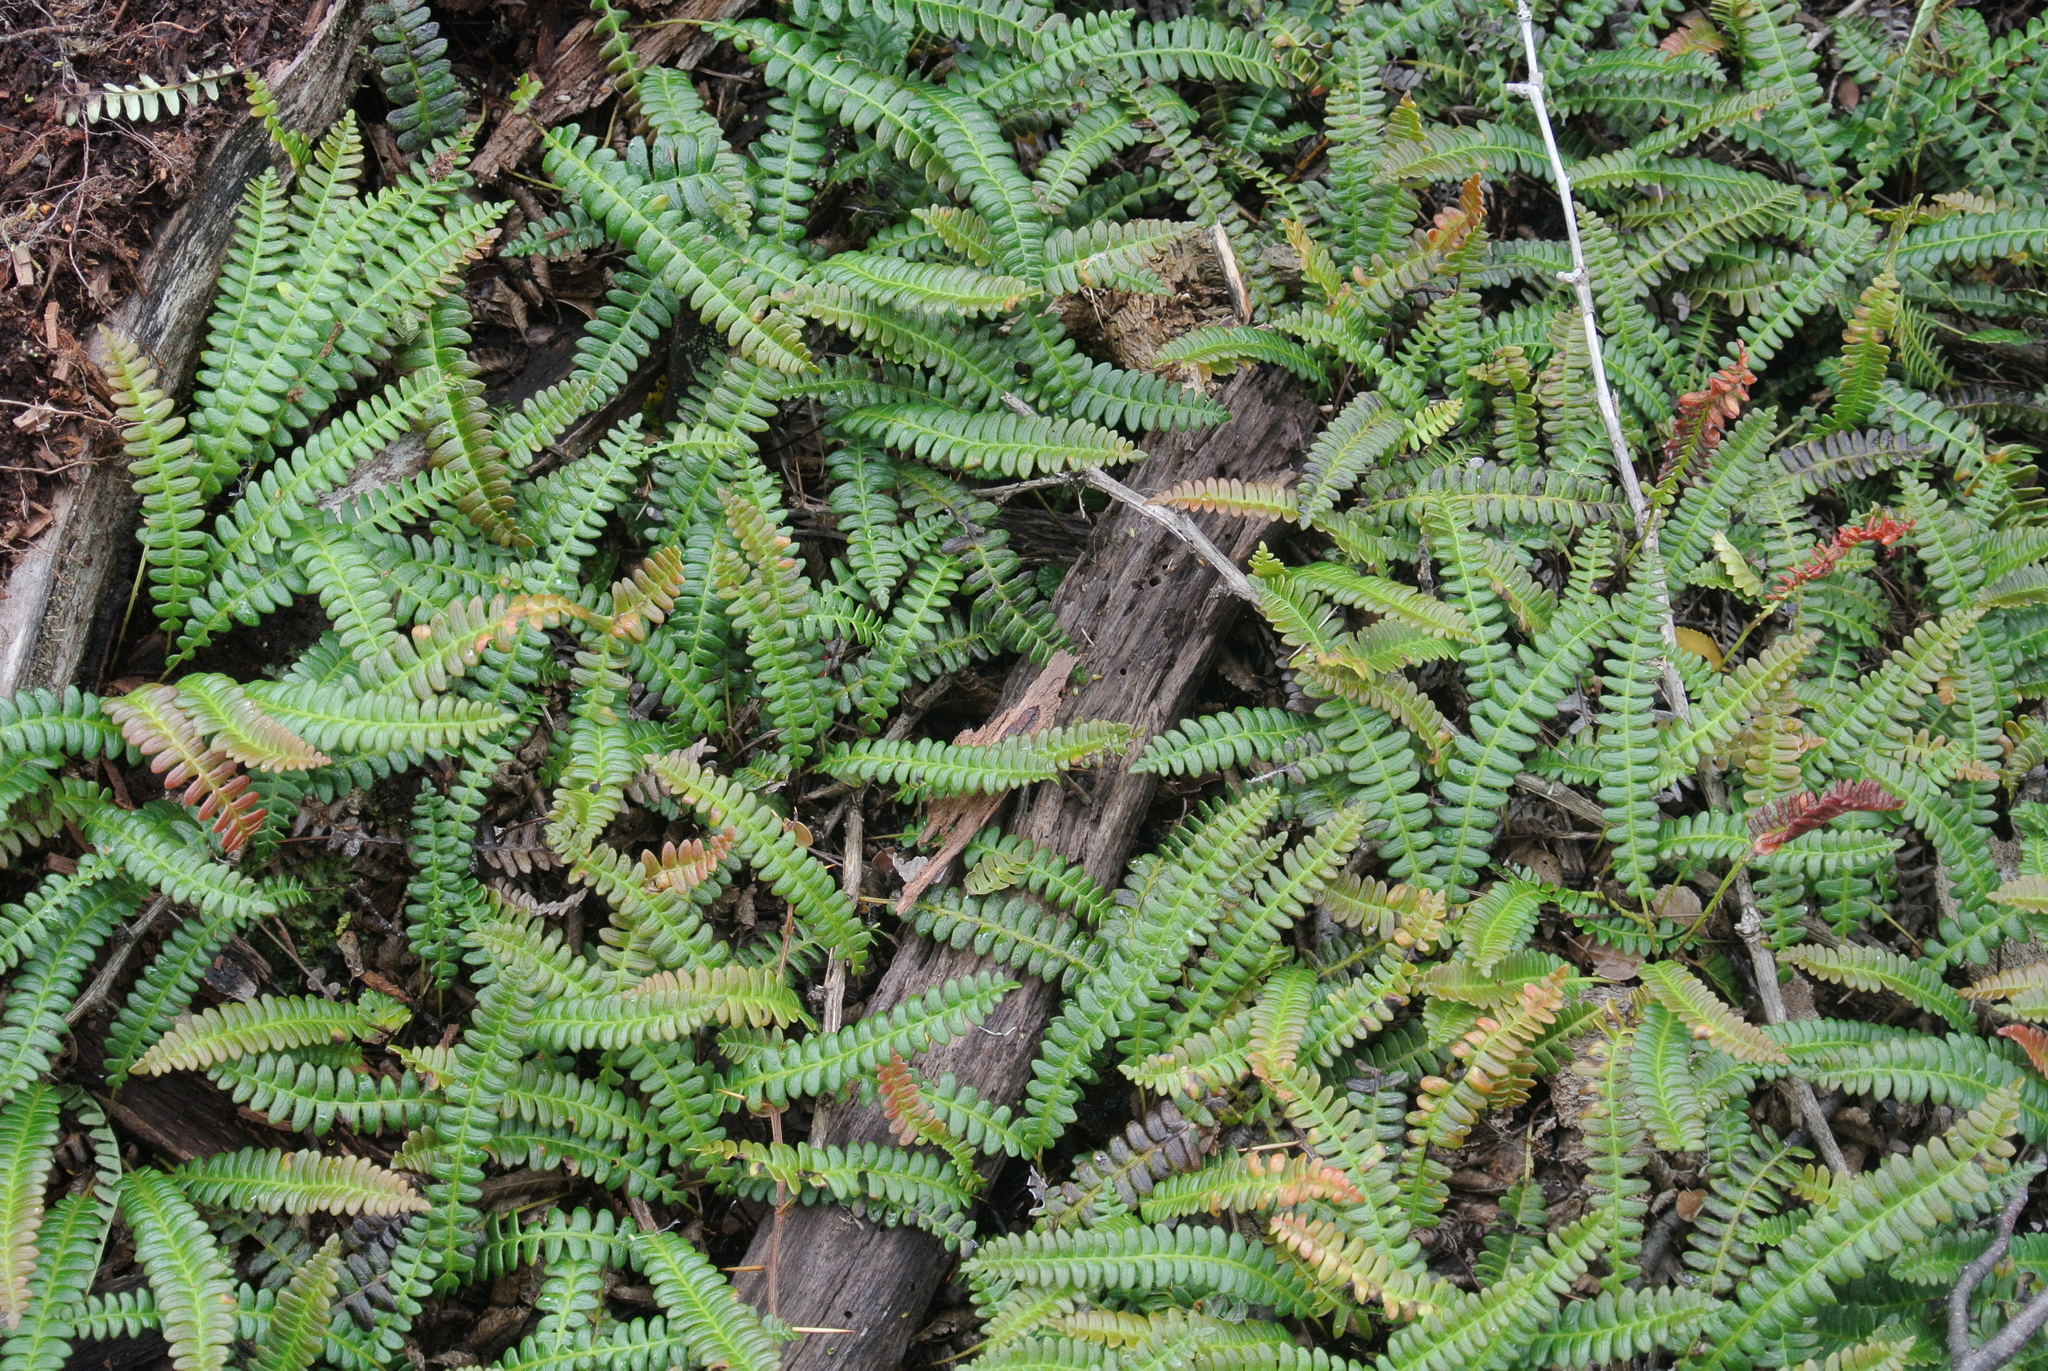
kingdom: Plantae
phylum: Tracheophyta
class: Polypodiopsida
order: Polypodiales
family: Blechnaceae
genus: Austroblechnum
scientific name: Austroblechnum penna-marina
